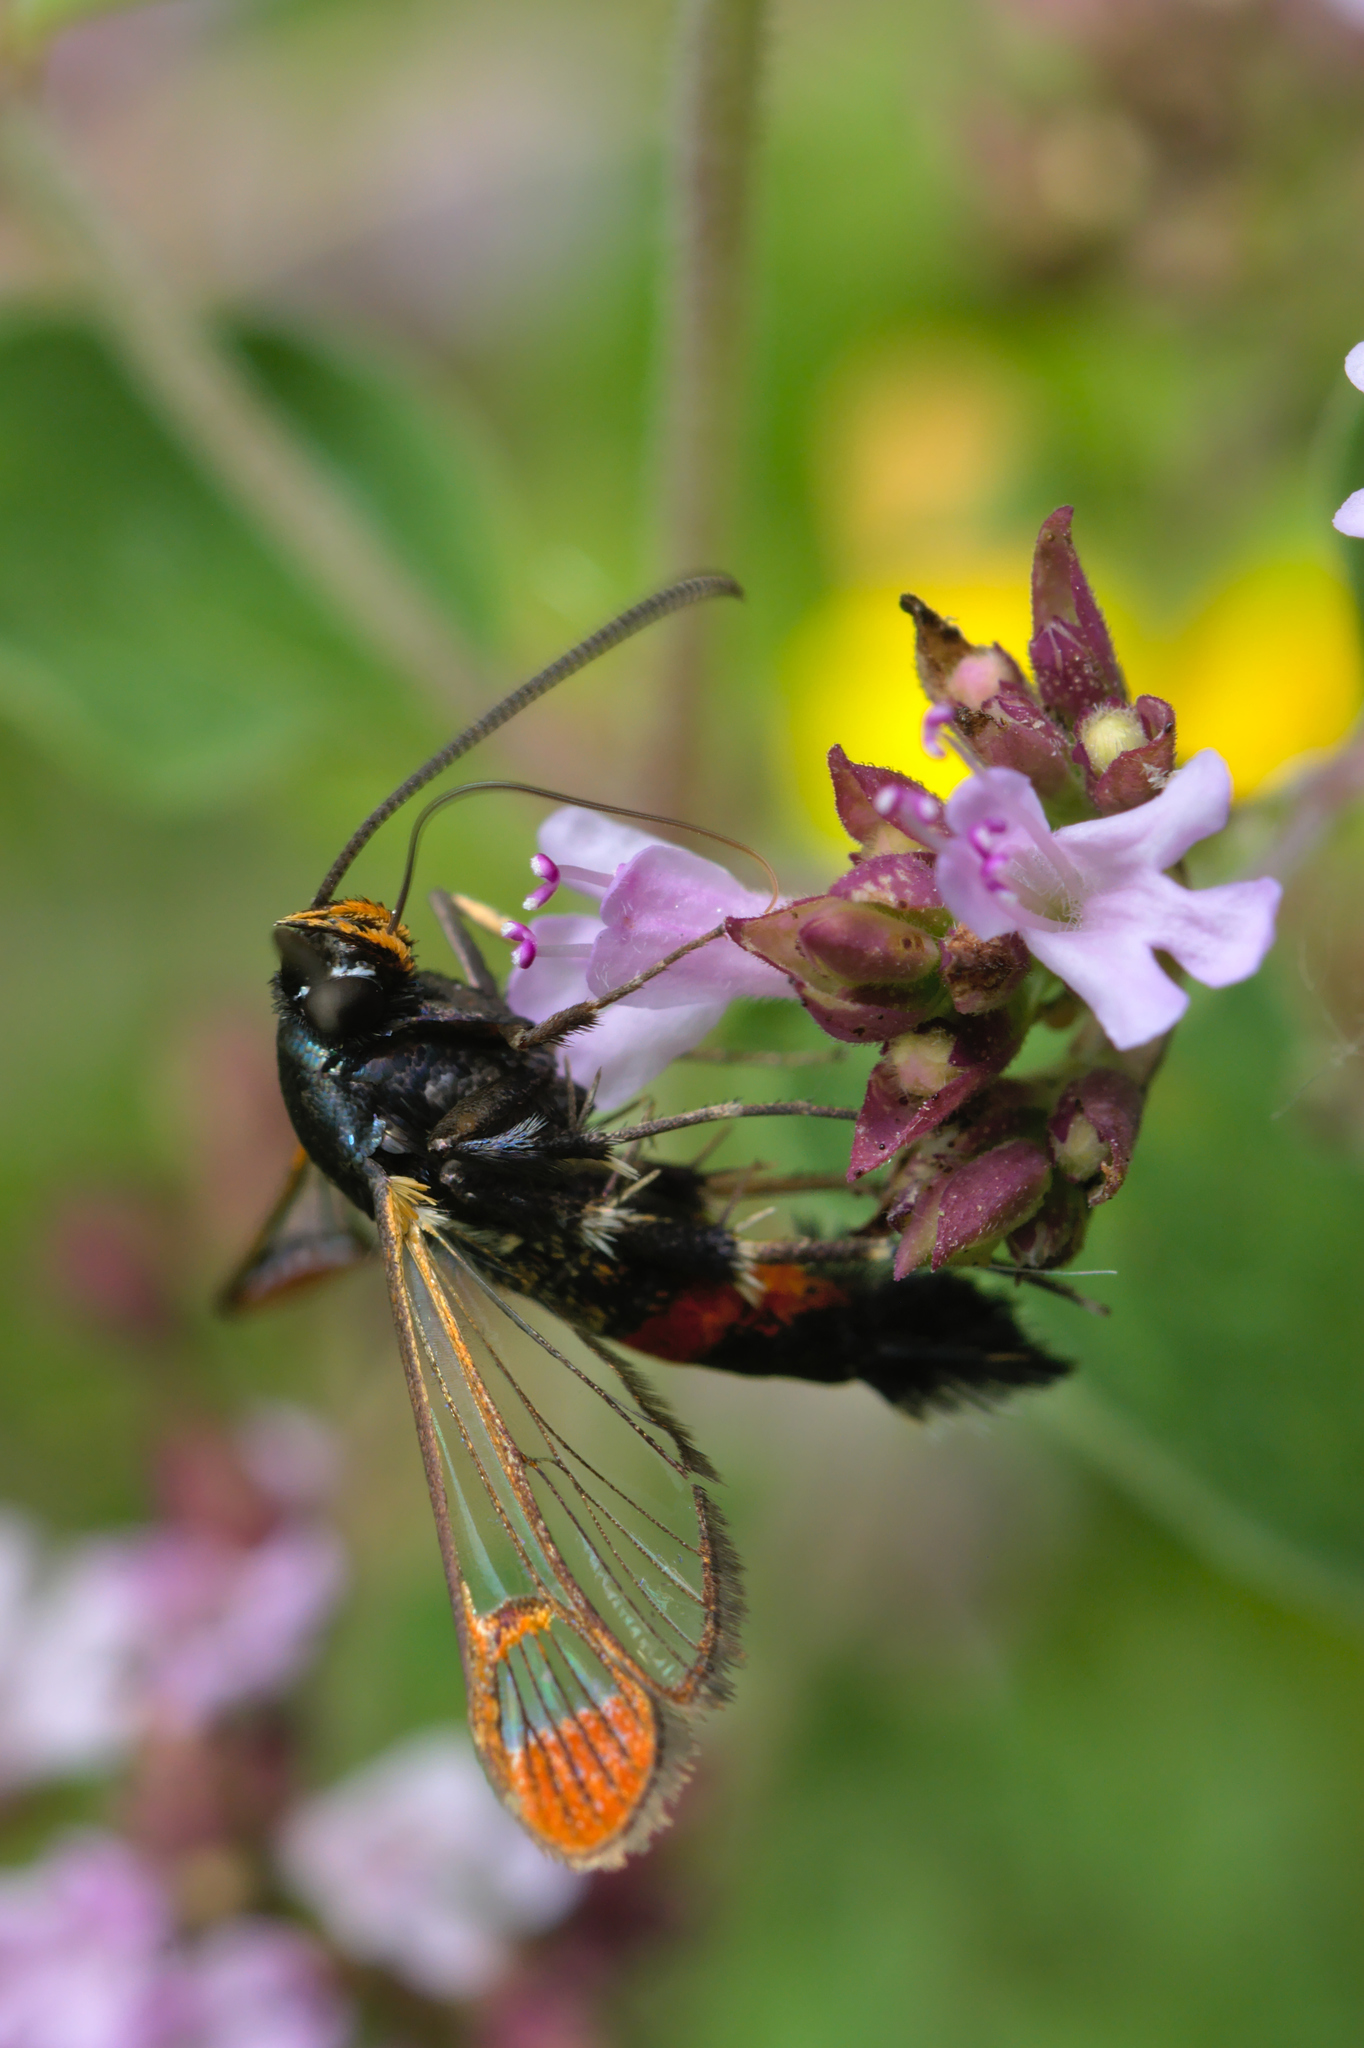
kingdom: Animalia
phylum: Arthropoda
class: Insecta
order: Lepidoptera
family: Sesiidae
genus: Synanthedon
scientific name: Synanthedon formicaeformis
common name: Red-tipped clearwing
